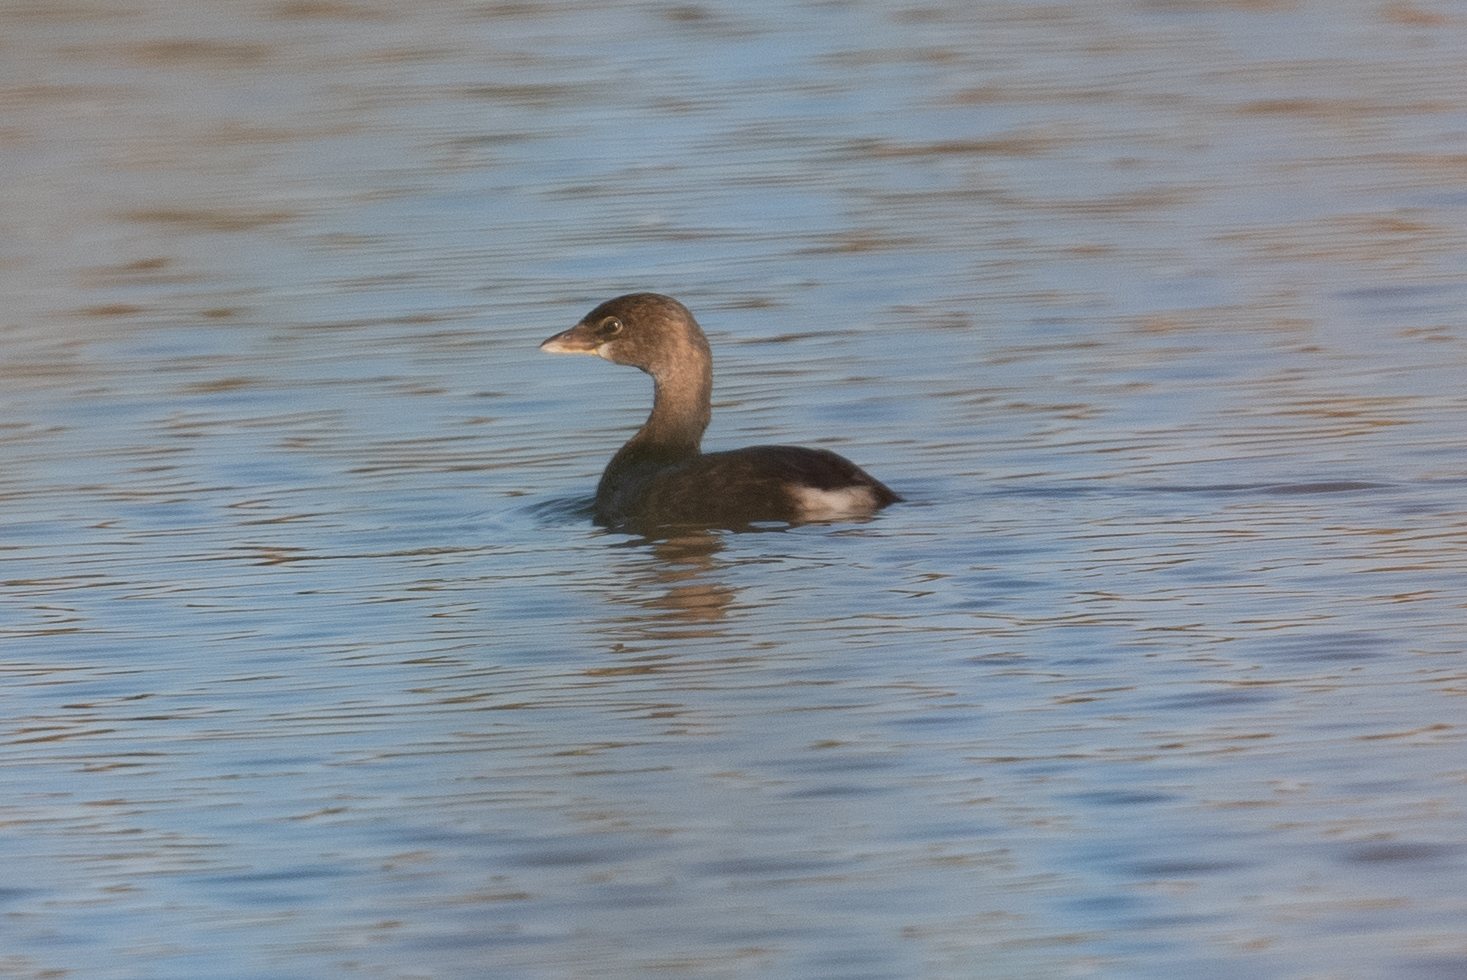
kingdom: Animalia
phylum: Chordata
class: Aves
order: Podicipediformes
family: Podicipedidae
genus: Podilymbus
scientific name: Podilymbus podiceps
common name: Pied-billed grebe
